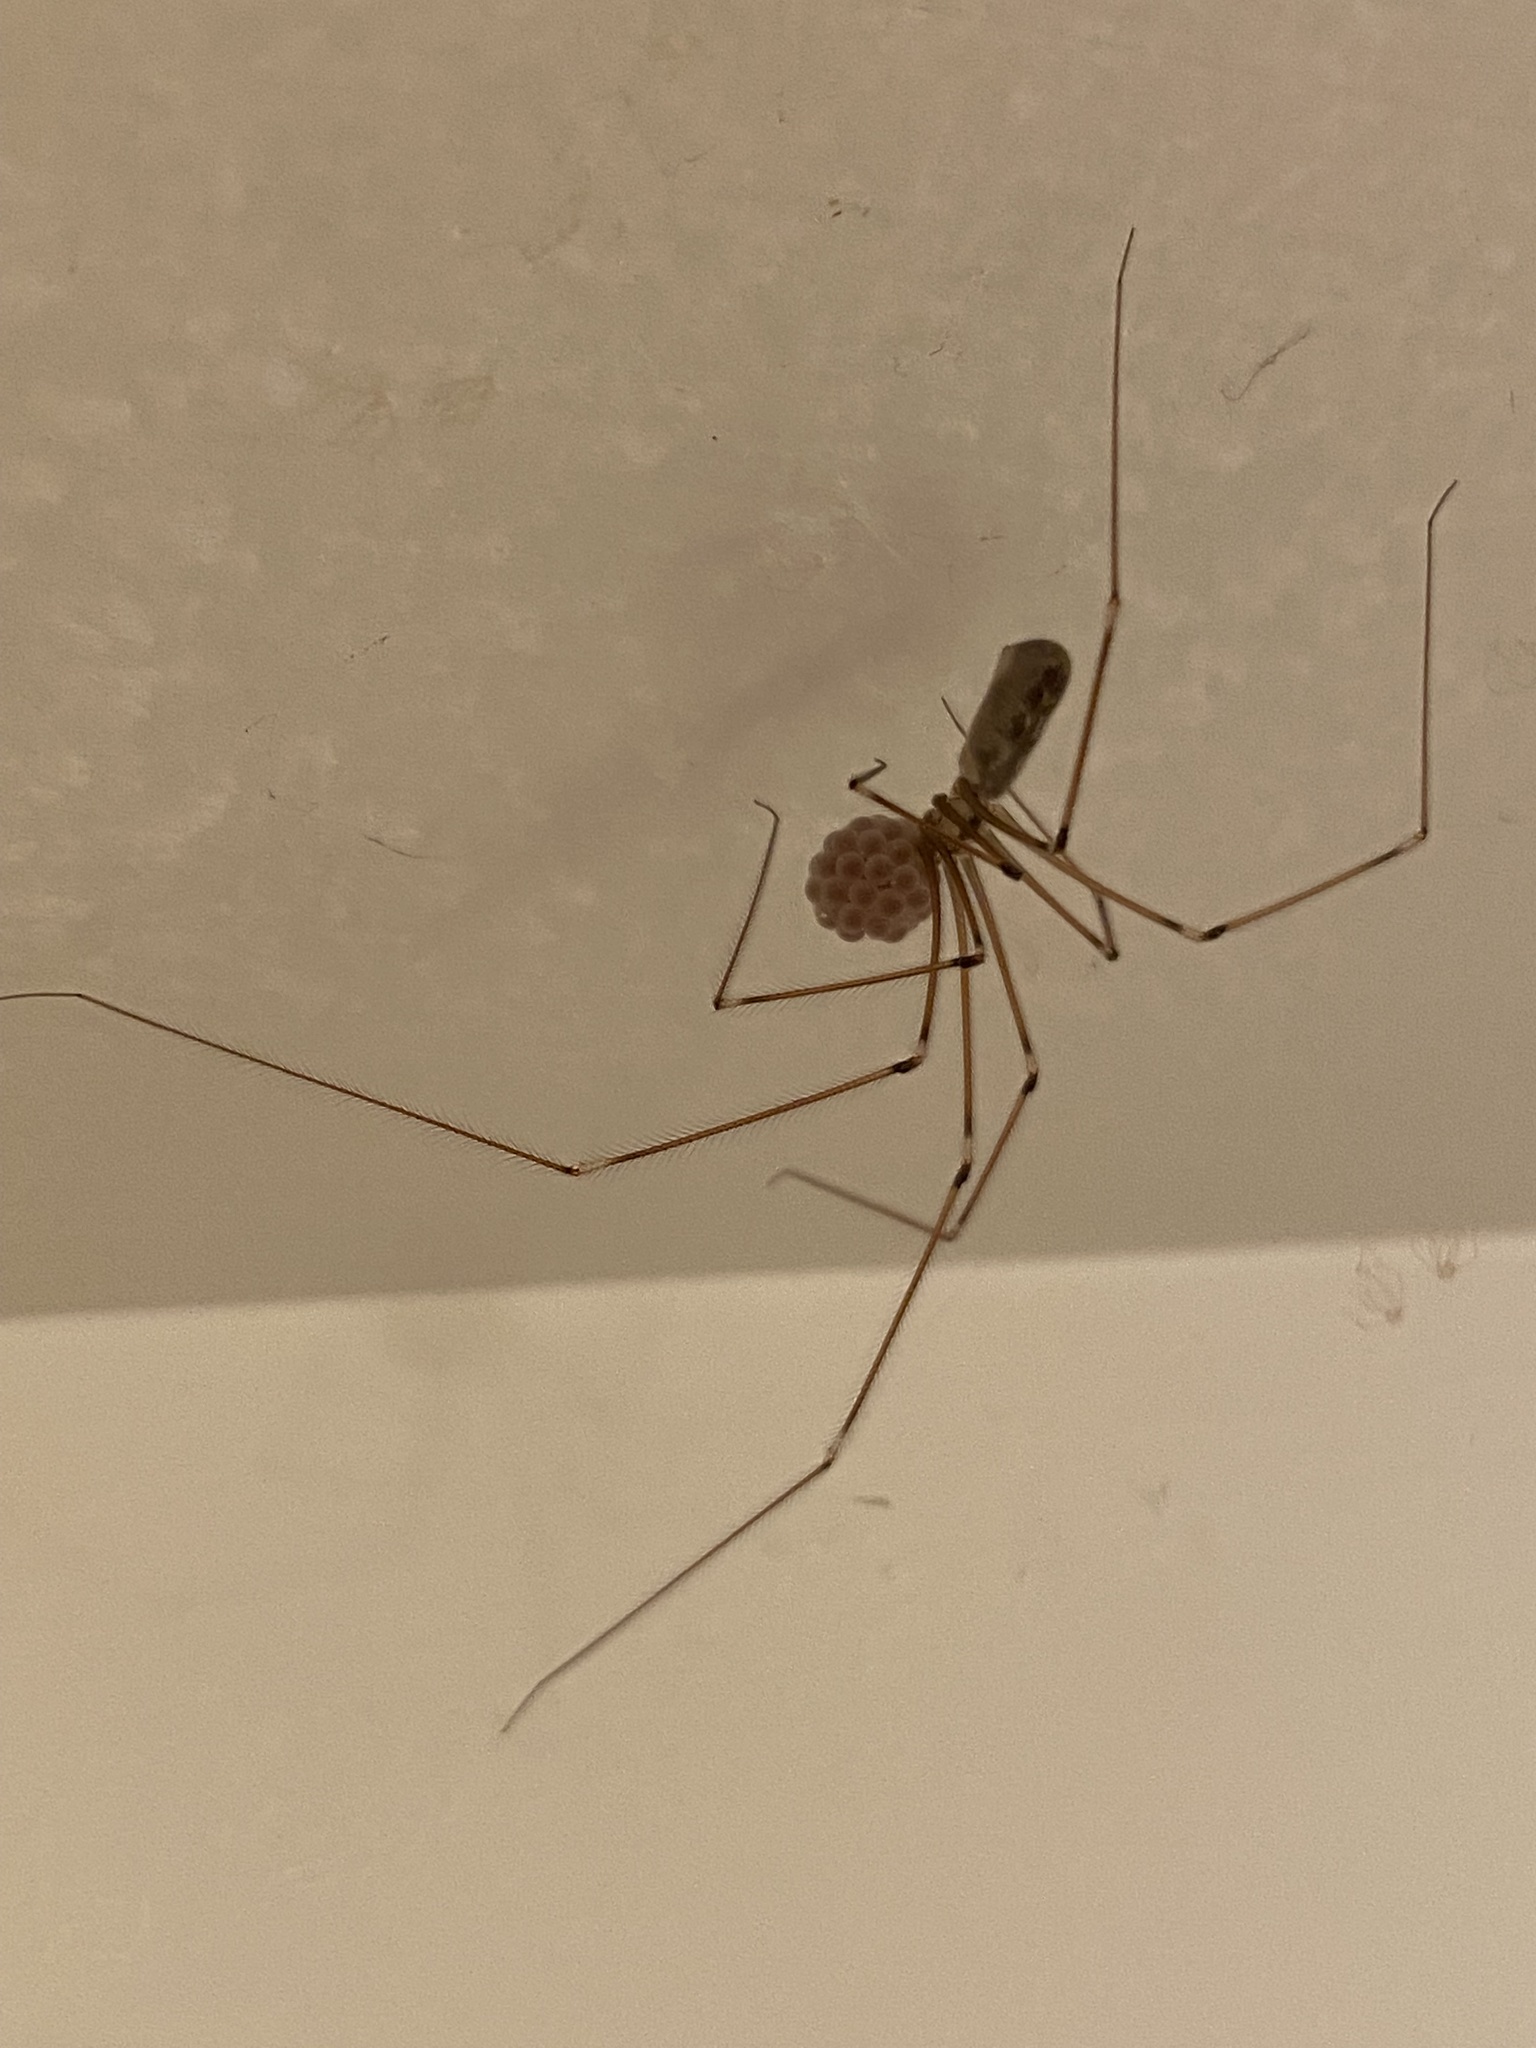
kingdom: Animalia
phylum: Arthropoda
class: Arachnida
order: Araneae
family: Pholcidae
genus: Pholcus
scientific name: Pholcus phalangioides
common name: Longbodied cellar spider
